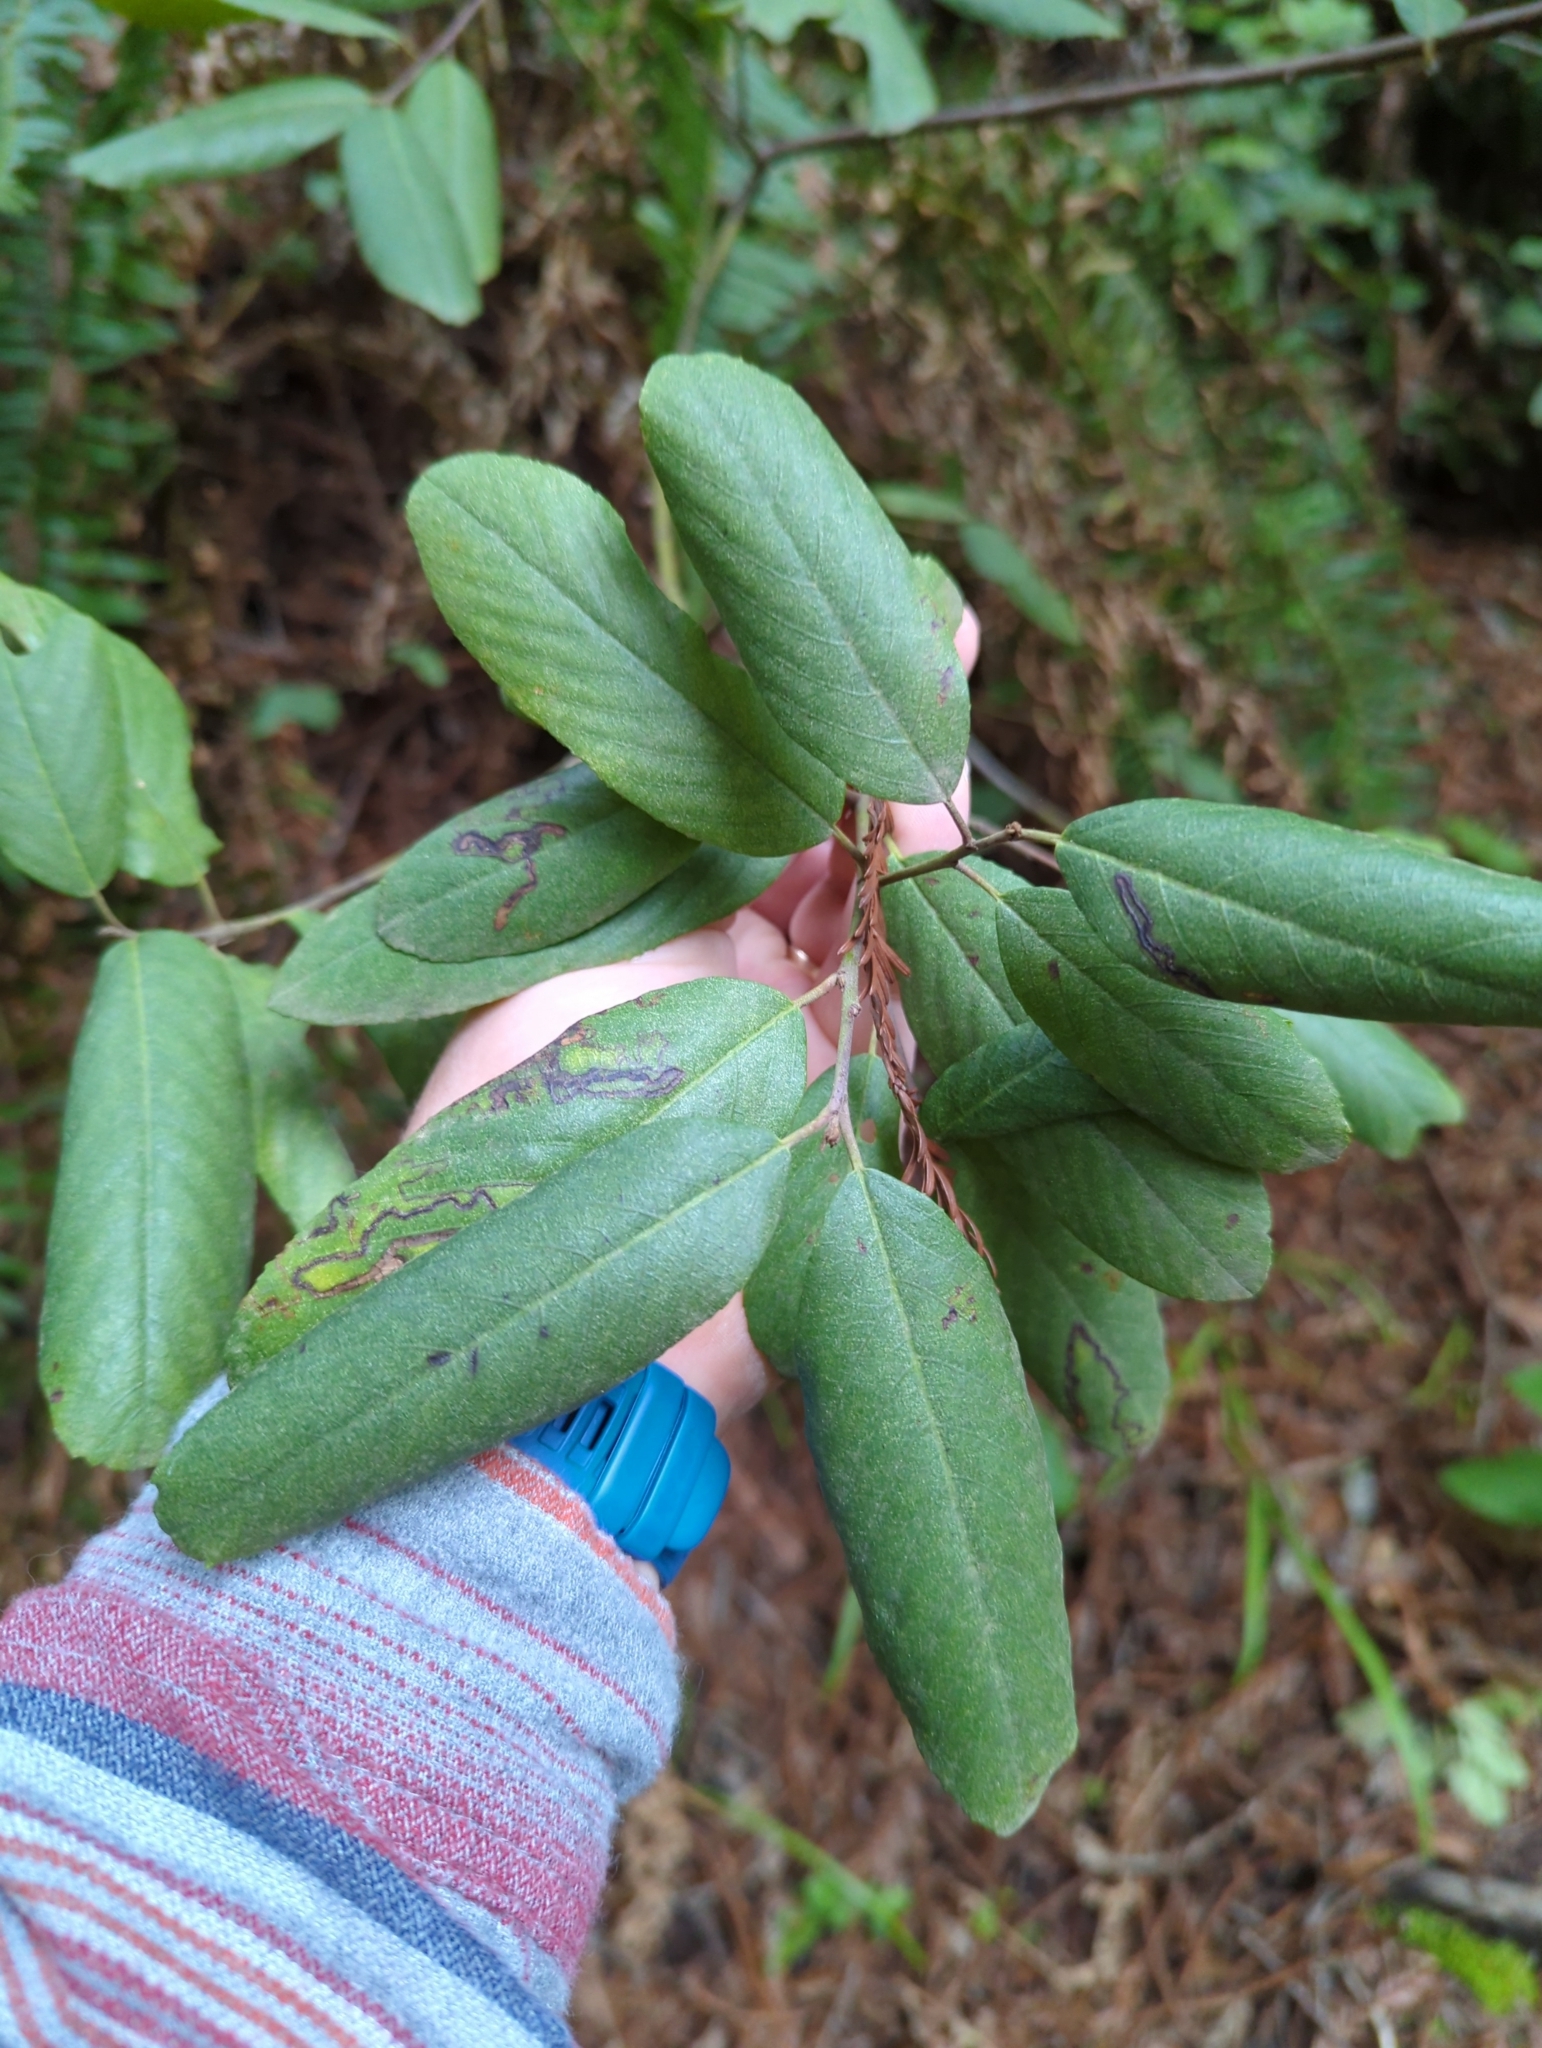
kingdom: Plantae
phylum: Tracheophyta
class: Magnoliopsida
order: Rosales
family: Rhamnaceae
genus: Frangula
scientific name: Frangula californica
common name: California buckthorn
